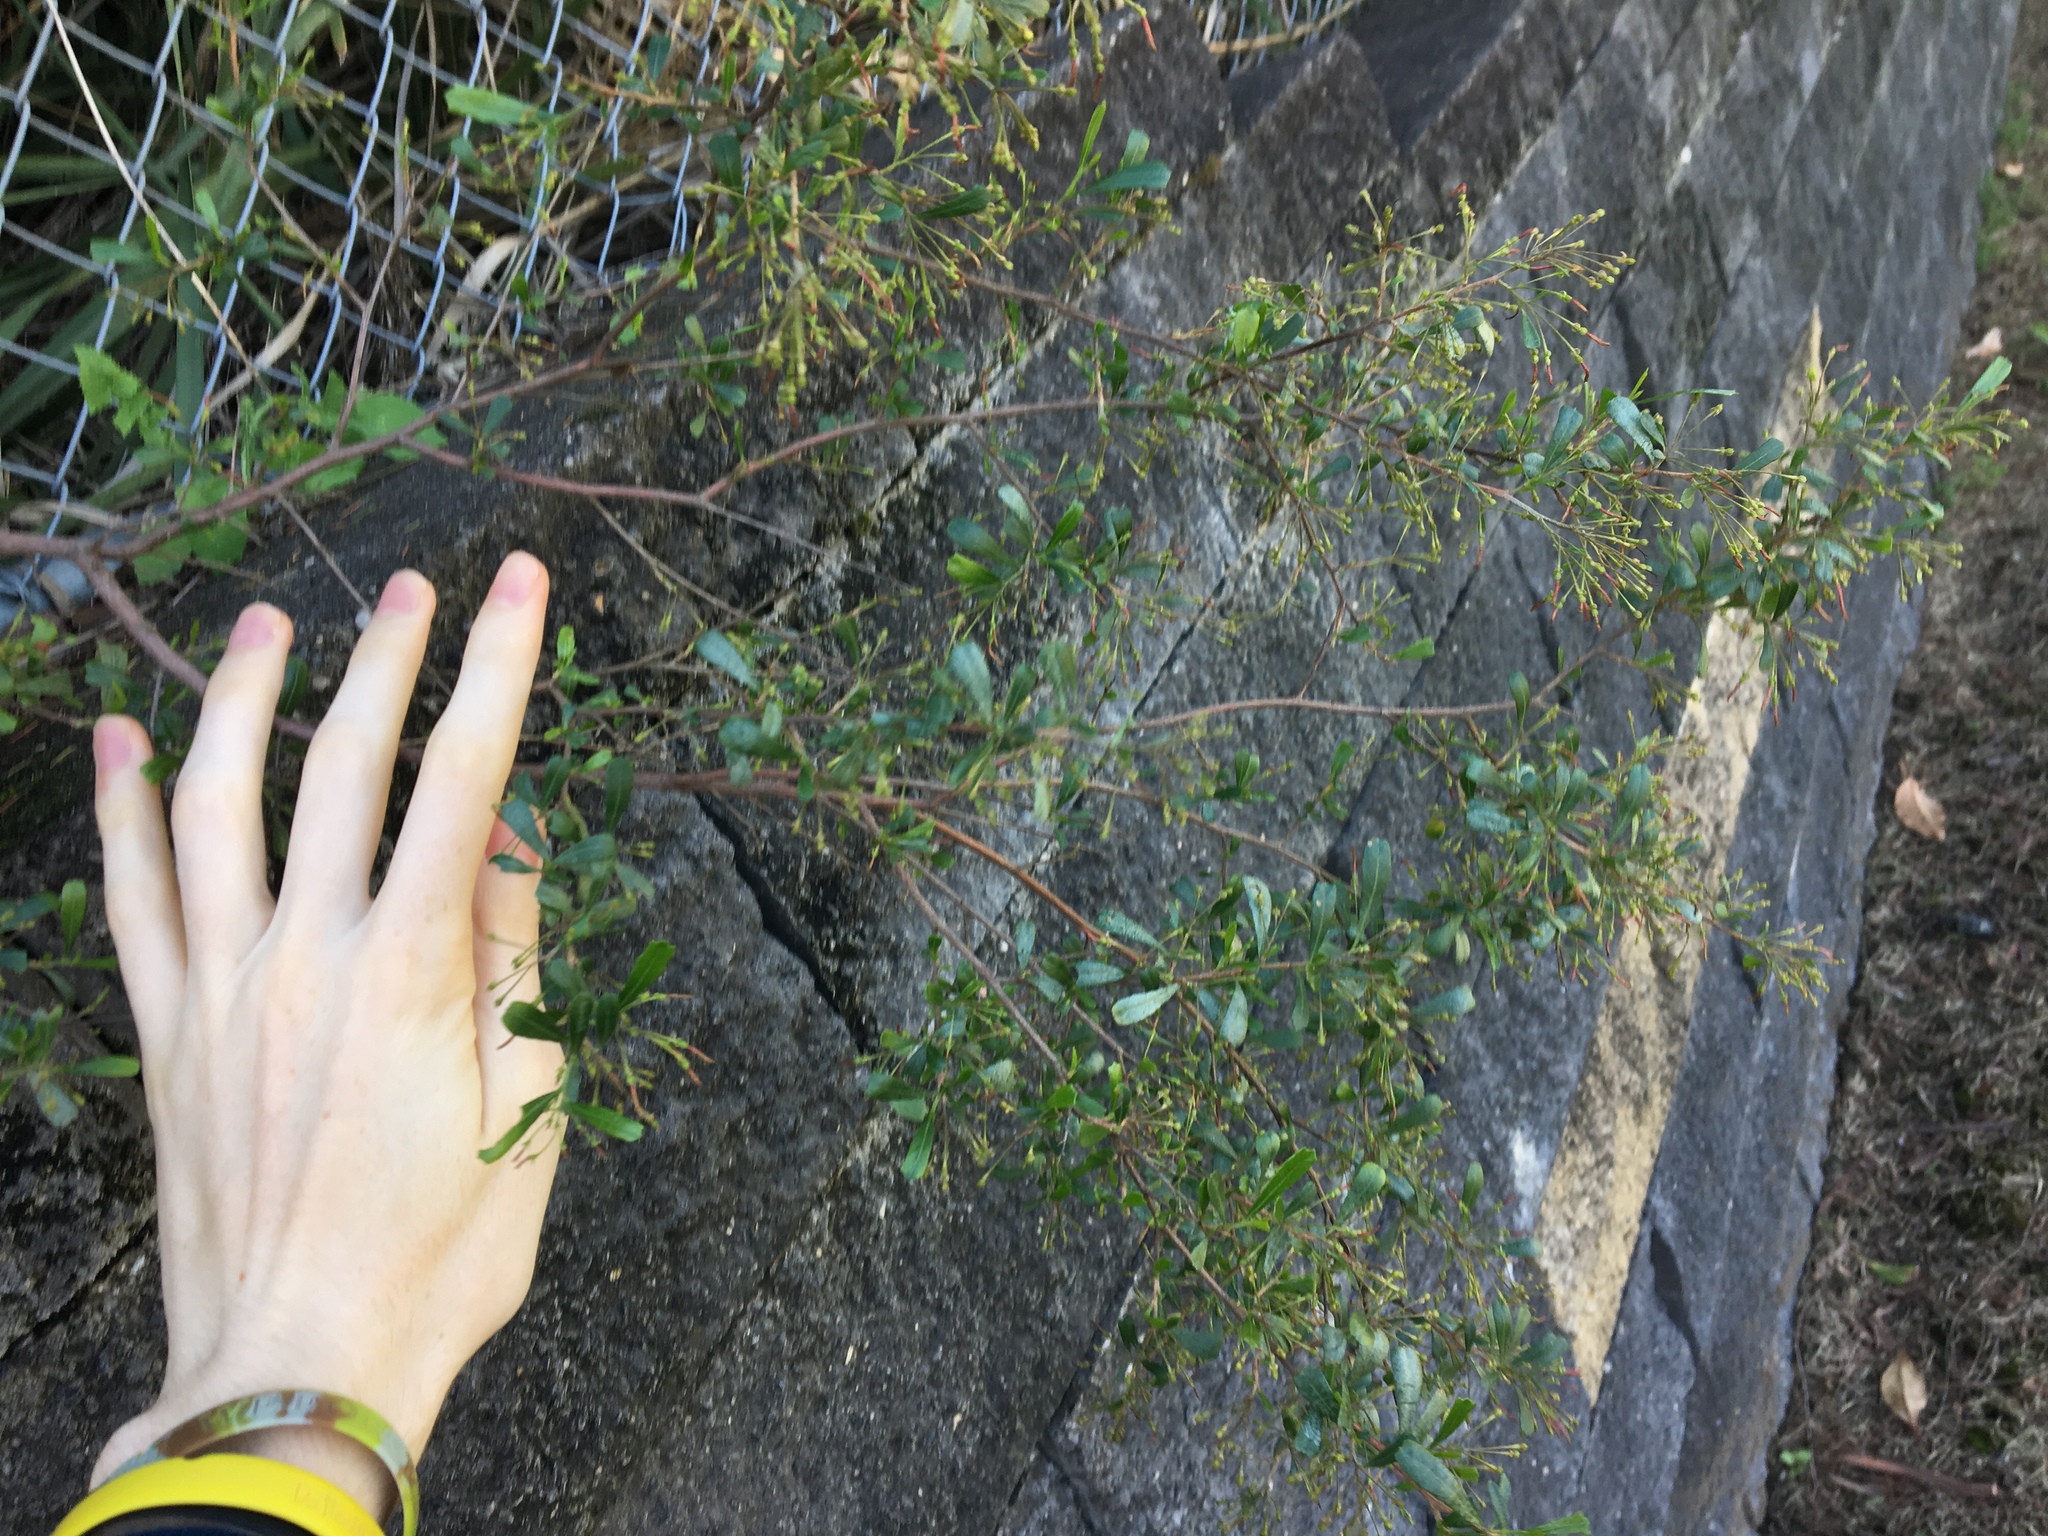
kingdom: Plantae
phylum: Tracheophyta
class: Magnoliopsida
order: Sapindales
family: Sapindaceae
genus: Dodonaea
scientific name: Dodonaea viscosa
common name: Hopbush
